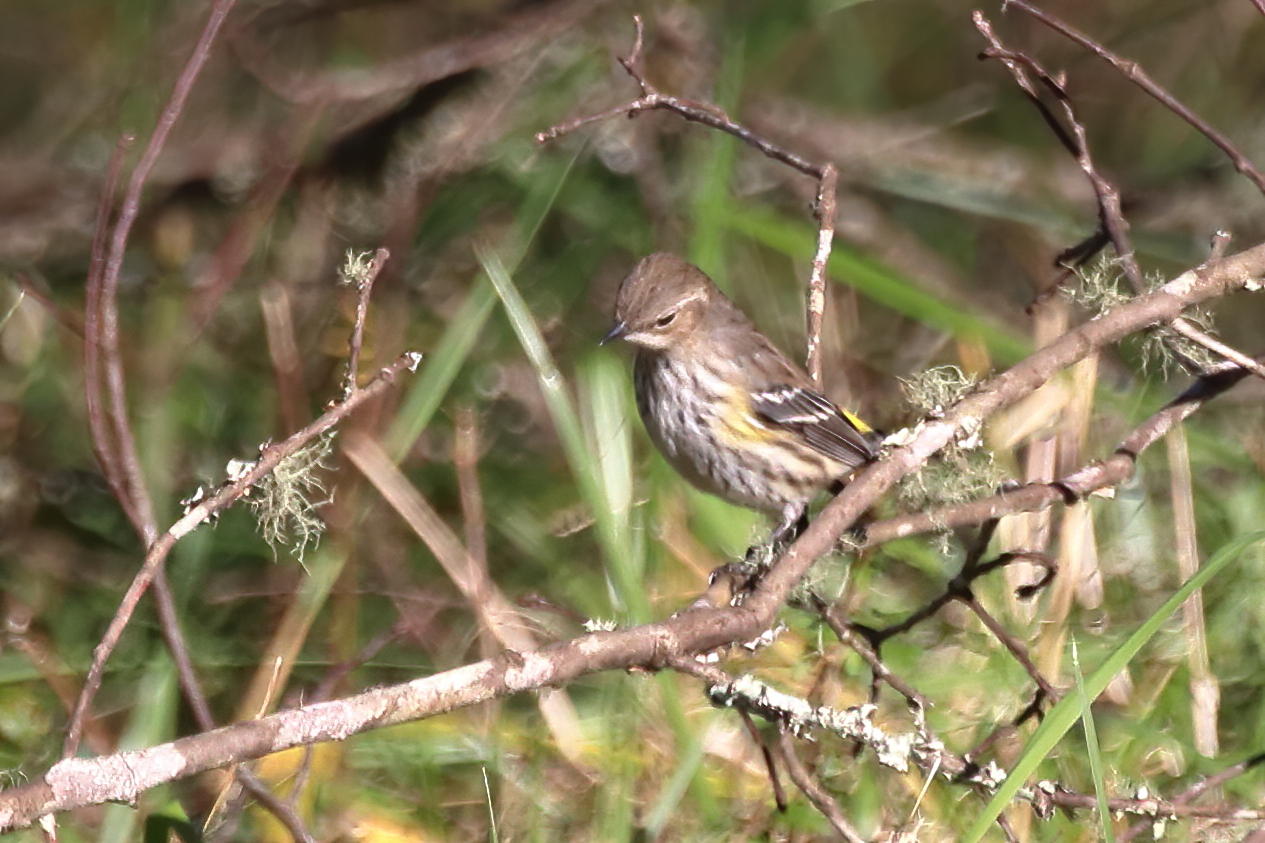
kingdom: Animalia
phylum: Chordata
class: Aves
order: Passeriformes
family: Parulidae
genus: Setophaga
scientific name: Setophaga coronata
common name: Myrtle warbler
